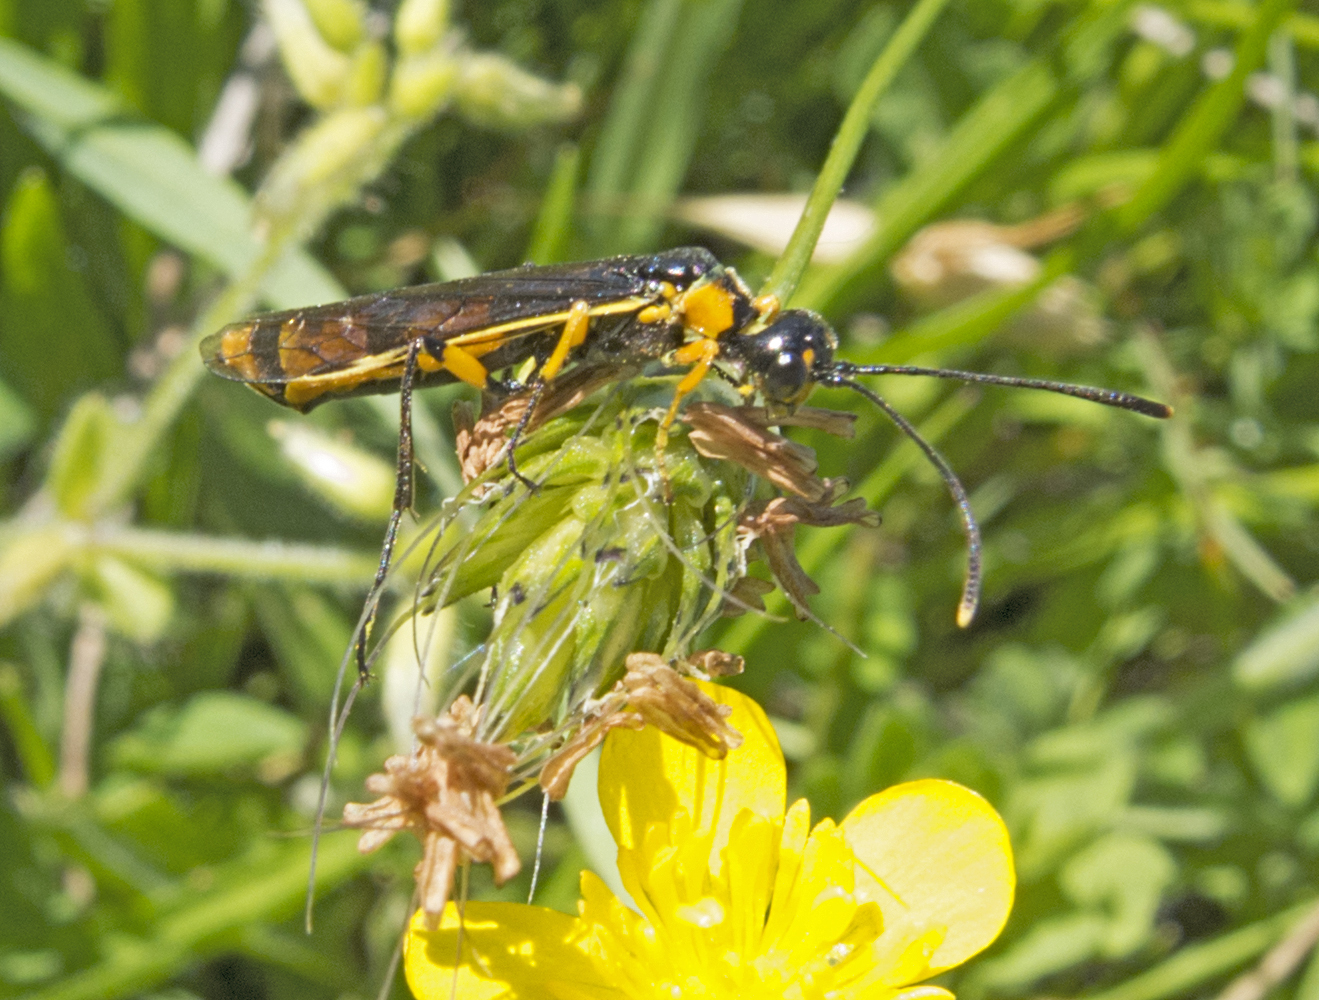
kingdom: Animalia
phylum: Arthropoda
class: Insecta
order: Hymenoptera
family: Cephidae
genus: Calameuta
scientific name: Calameuta idolon
